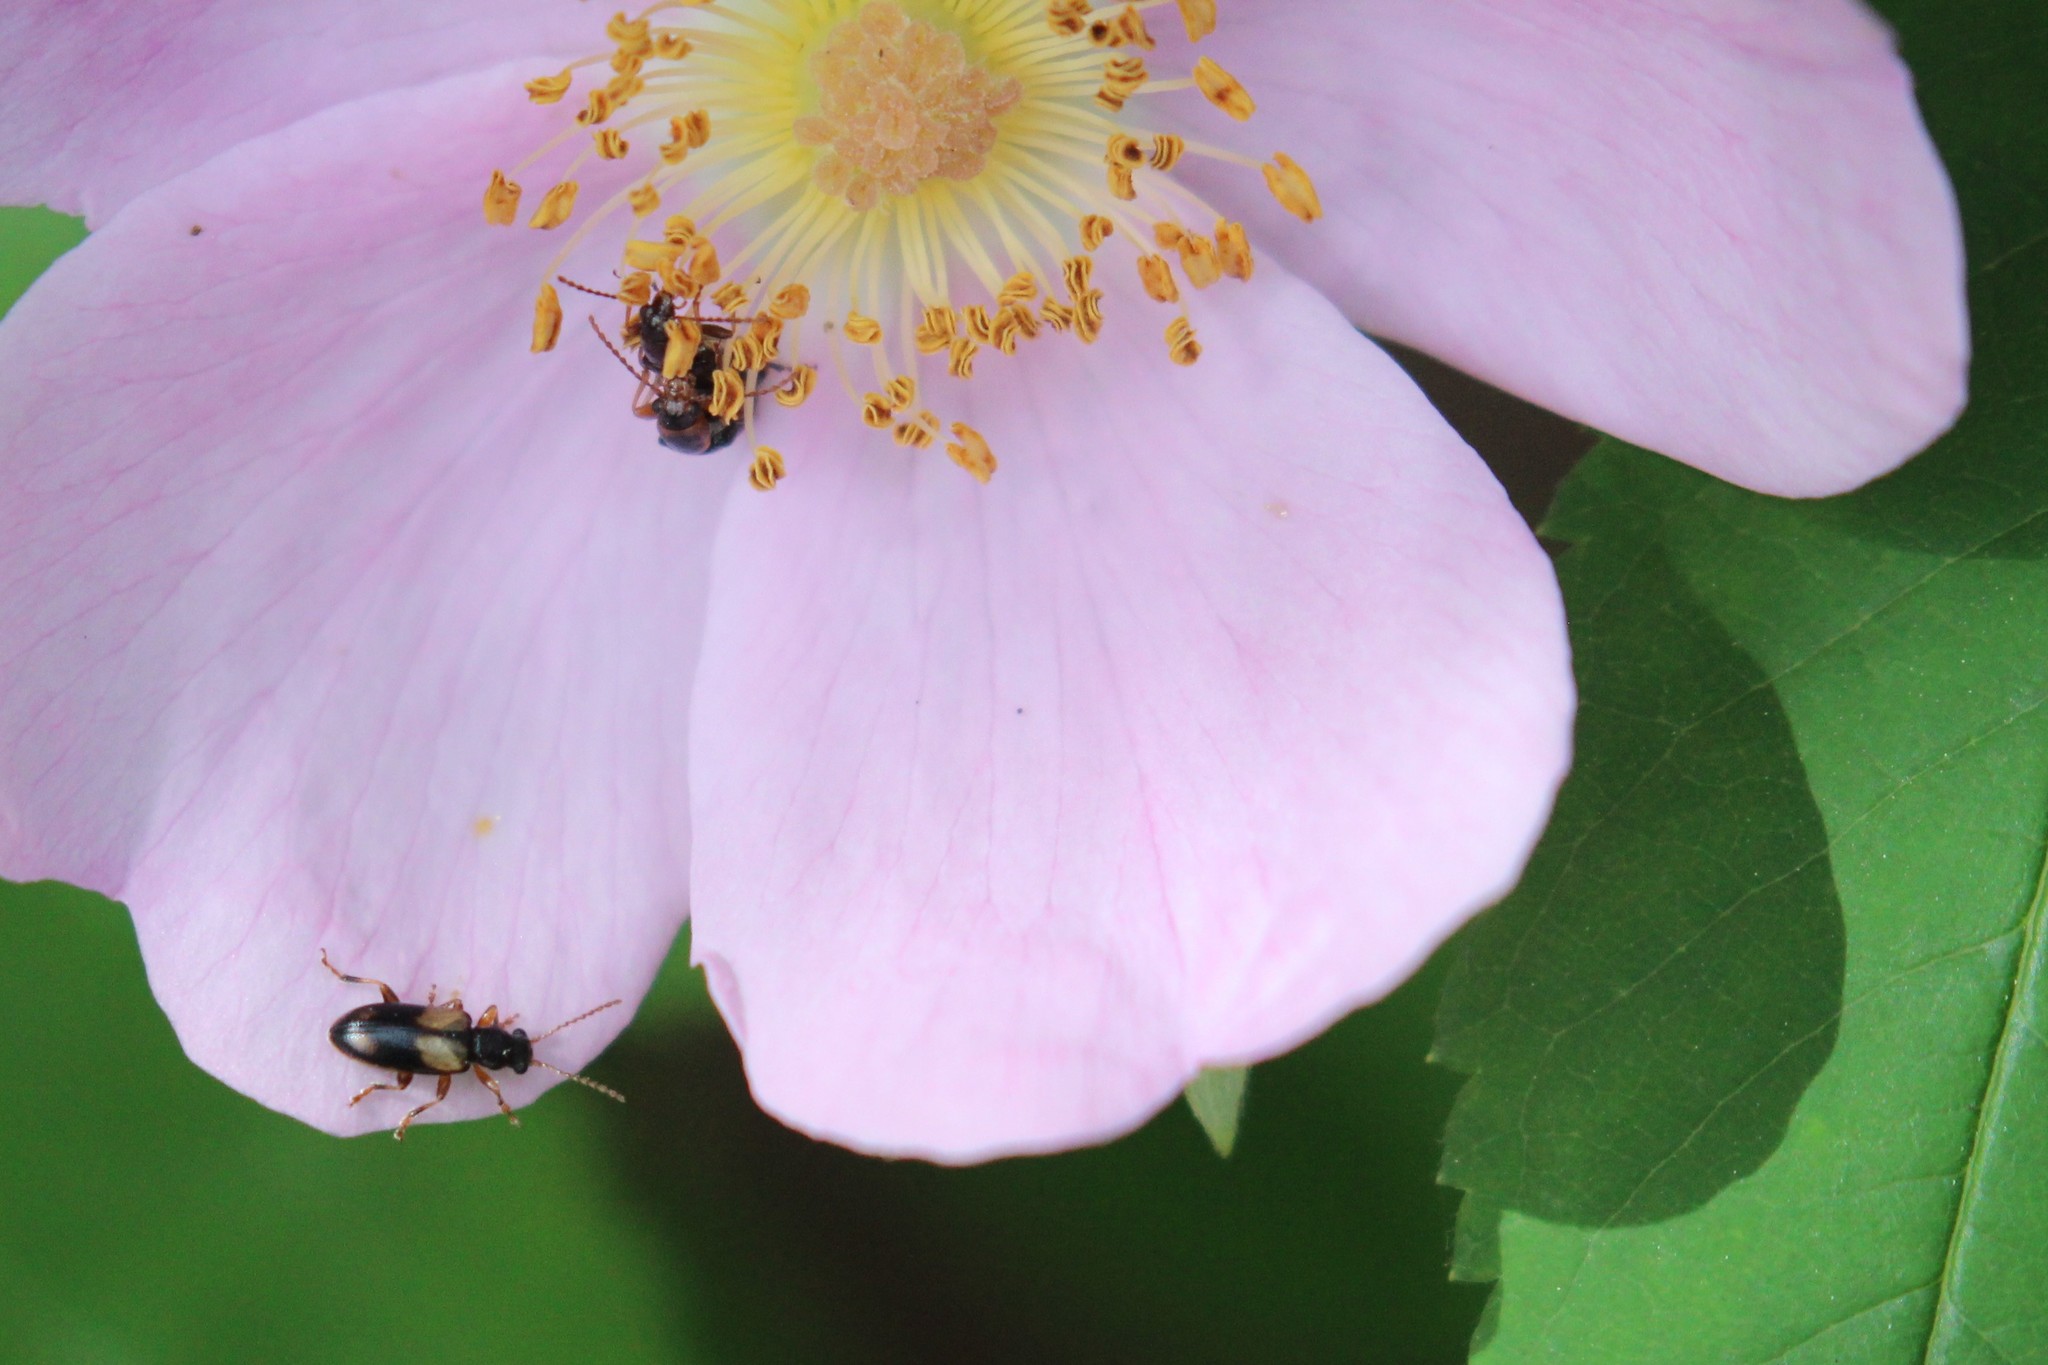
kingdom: Animalia
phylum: Arthropoda
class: Insecta
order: Coleoptera
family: Orsodacnidae
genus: Orsodacne
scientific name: Orsodacne atra
